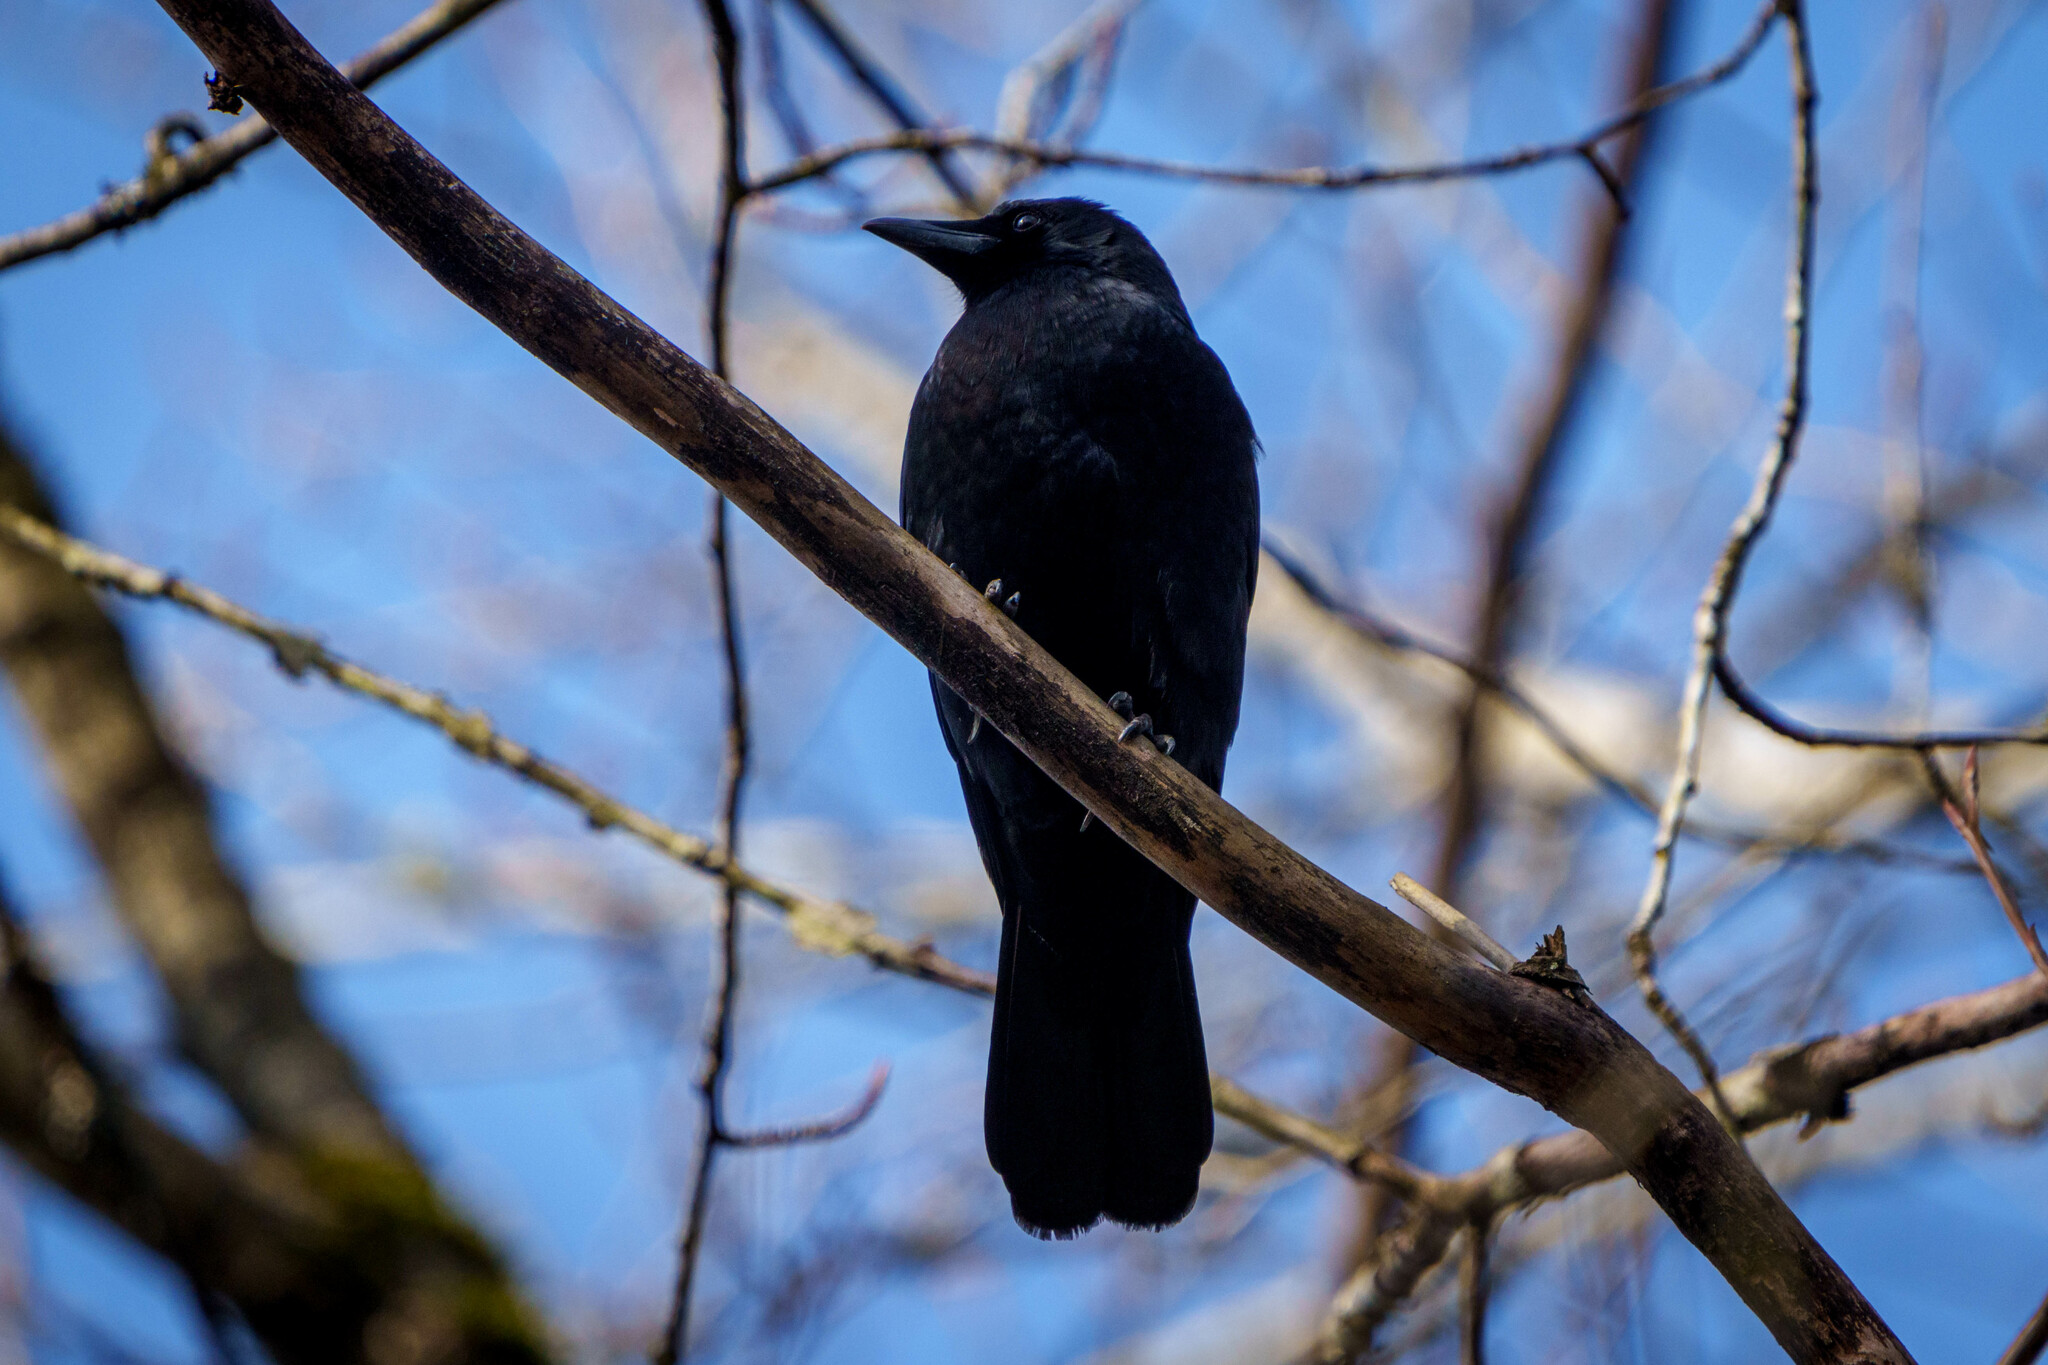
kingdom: Animalia
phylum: Chordata
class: Aves
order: Passeriformes
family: Corvidae
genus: Corvus
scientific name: Corvus brachyrhynchos
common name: American crow
